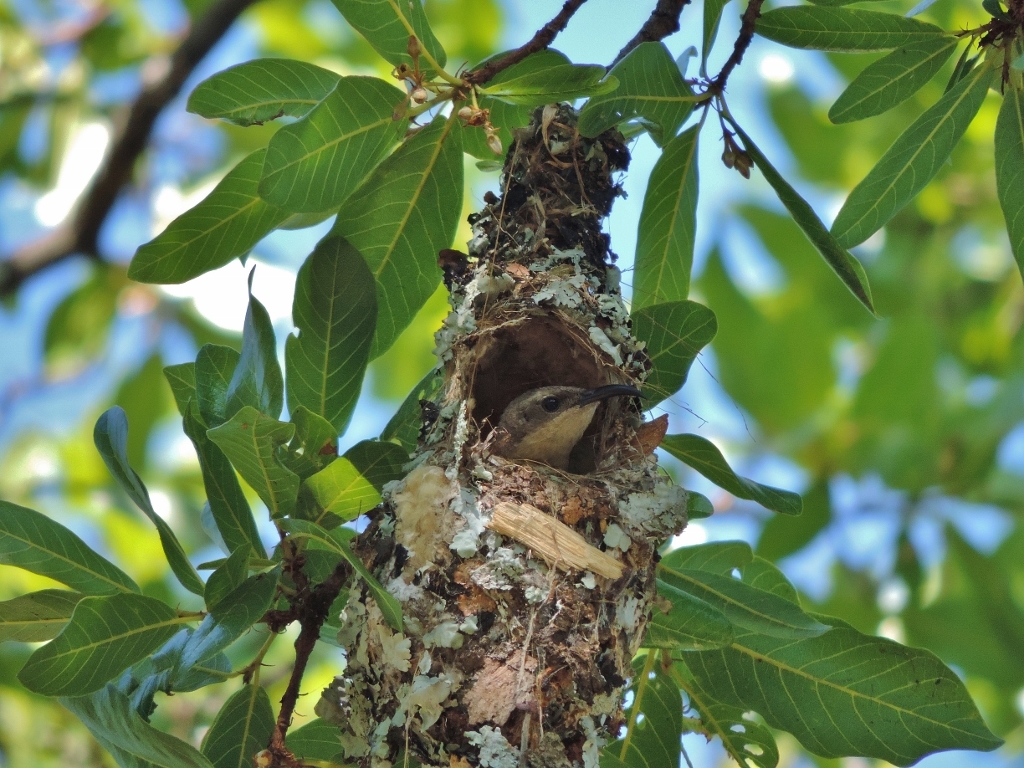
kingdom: Animalia
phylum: Chordata
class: Aves
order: Passeriformes
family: Nectariniidae
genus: Chalcomitra
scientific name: Chalcomitra amethystina
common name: Amethyst sunbird
